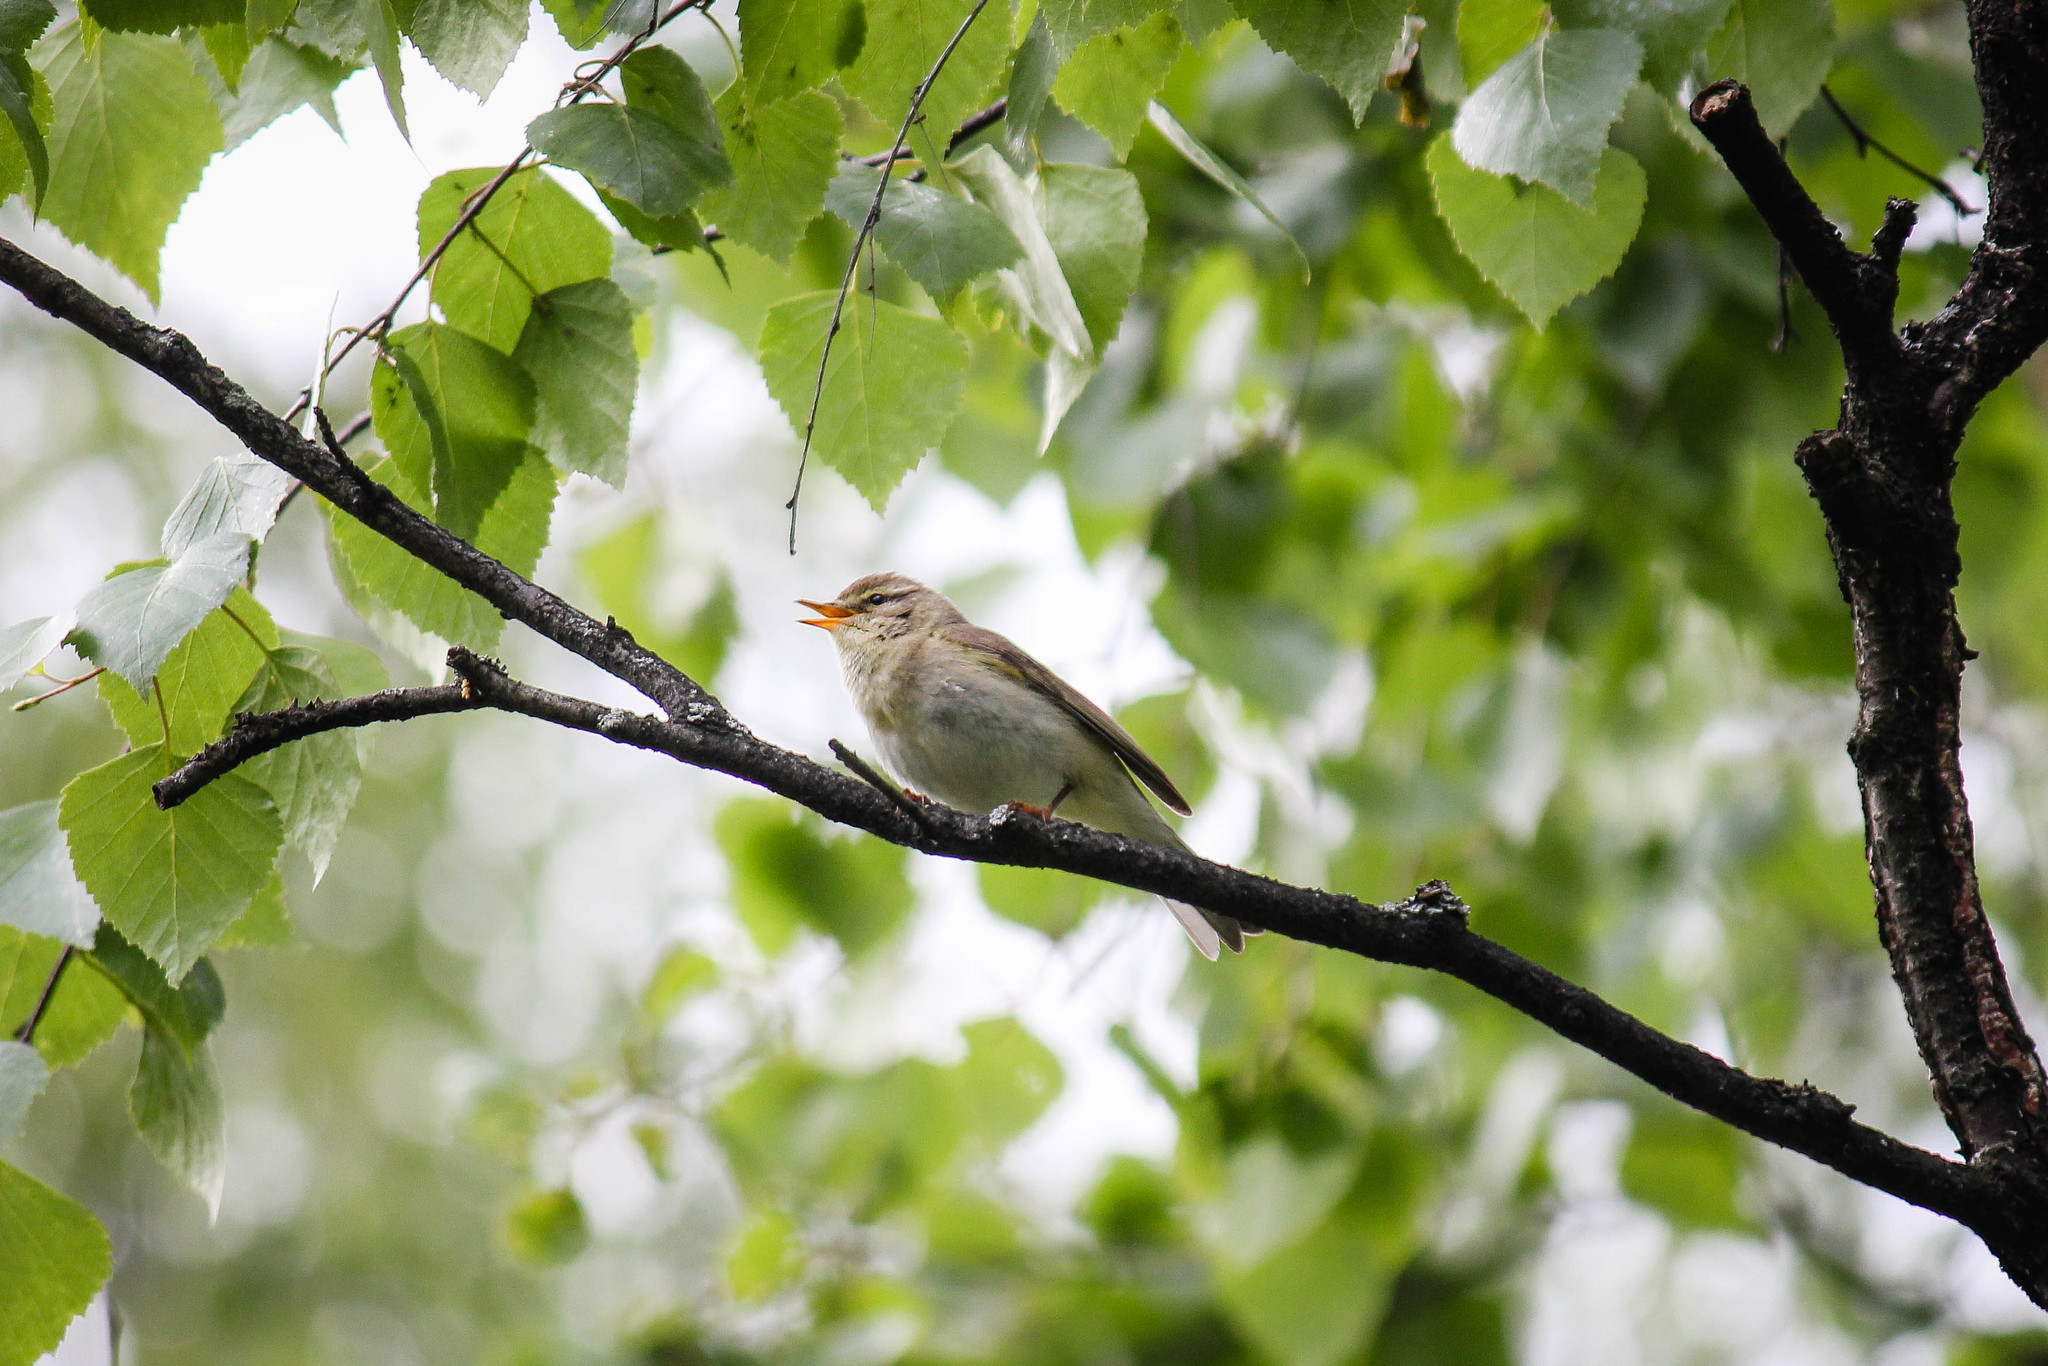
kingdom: Animalia
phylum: Chordata
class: Aves
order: Passeriformes
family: Phylloscopidae
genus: Phylloscopus
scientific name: Phylloscopus trochilus
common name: Willow warbler
